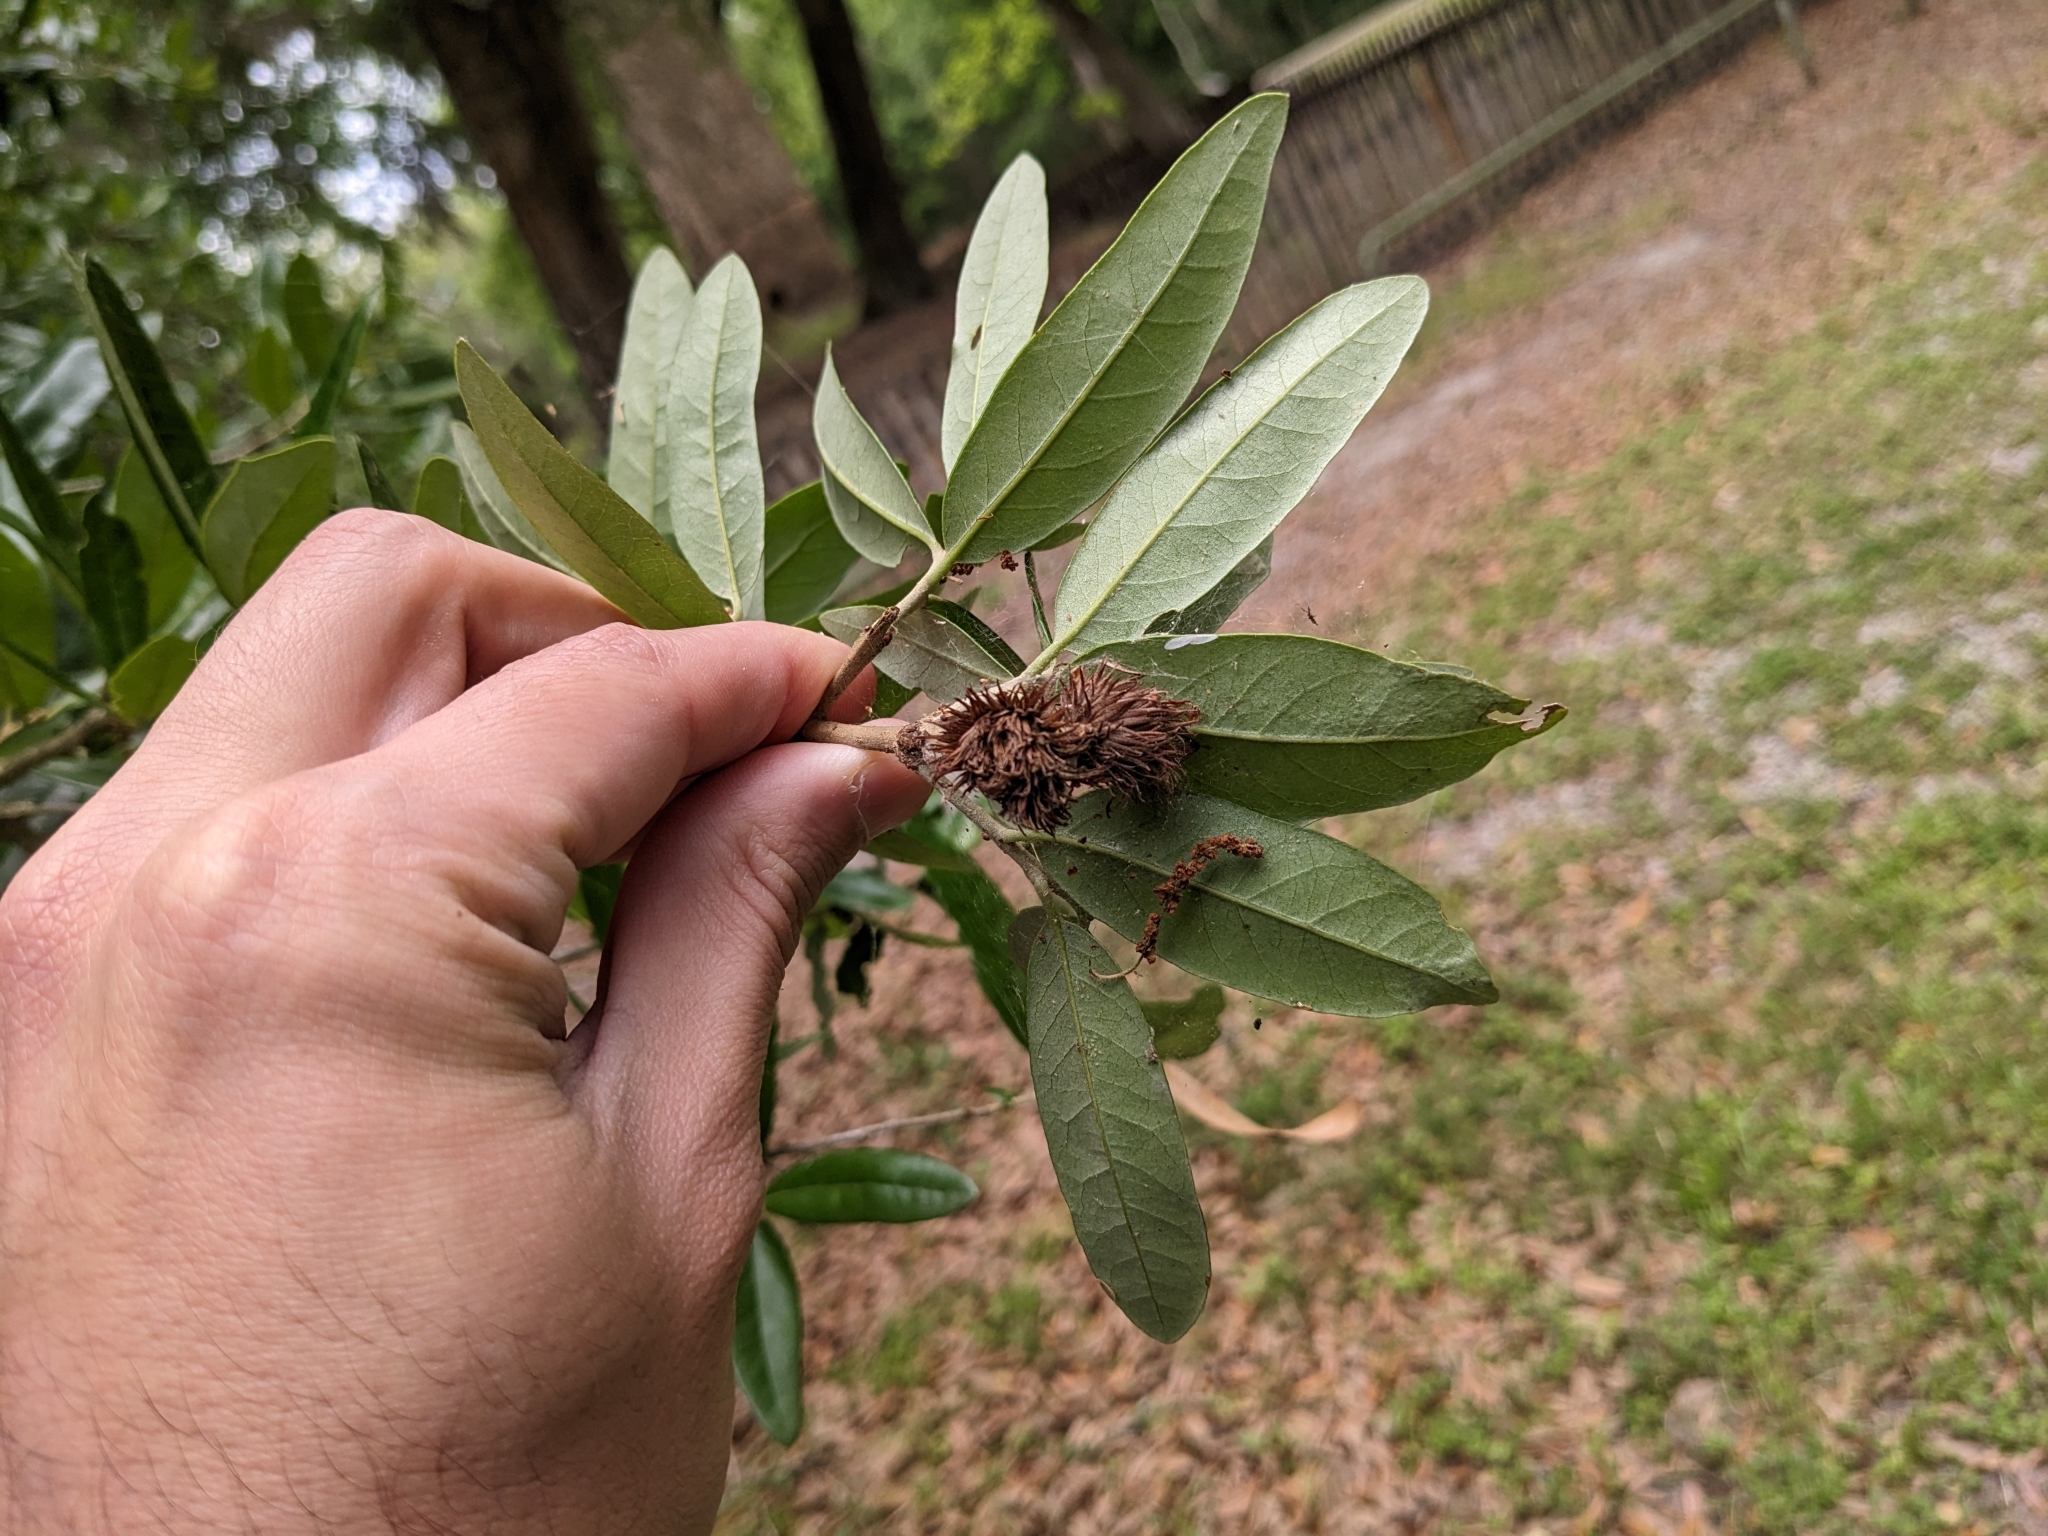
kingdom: Animalia
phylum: Arthropoda
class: Insecta
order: Hymenoptera
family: Cynipidae
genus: Andricus
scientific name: Andricus quercusfoliatus
